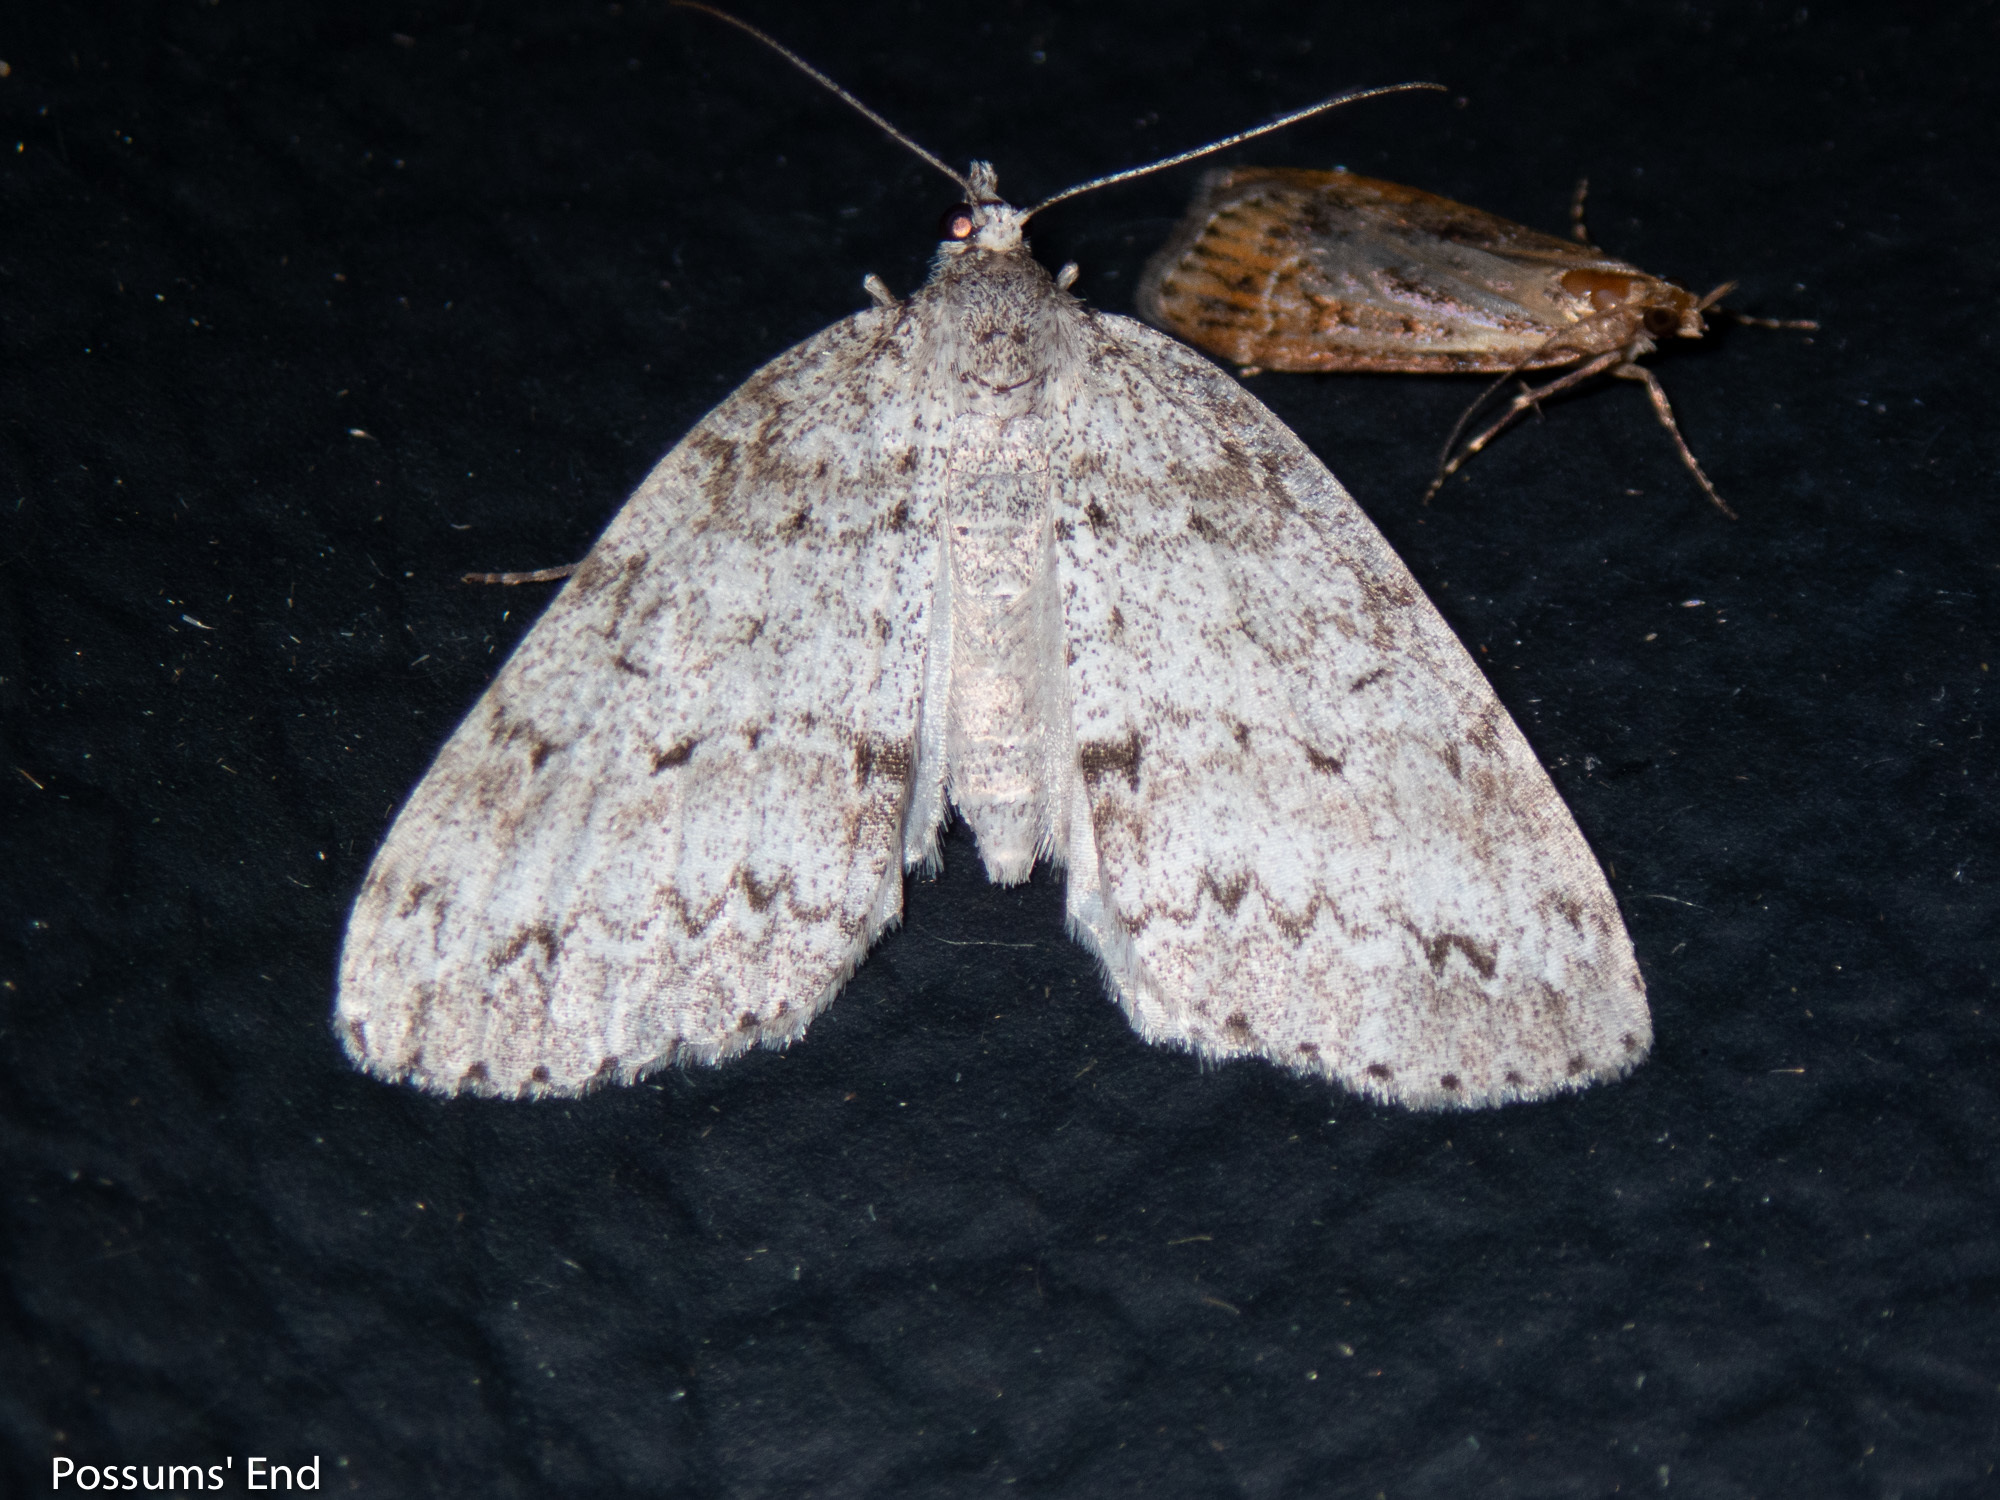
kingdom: Animalia
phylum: Arthropoda
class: Insecta
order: Lepidoptera
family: Geometridae
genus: Pseudocoremia
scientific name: Pseudocoremia fenerata
